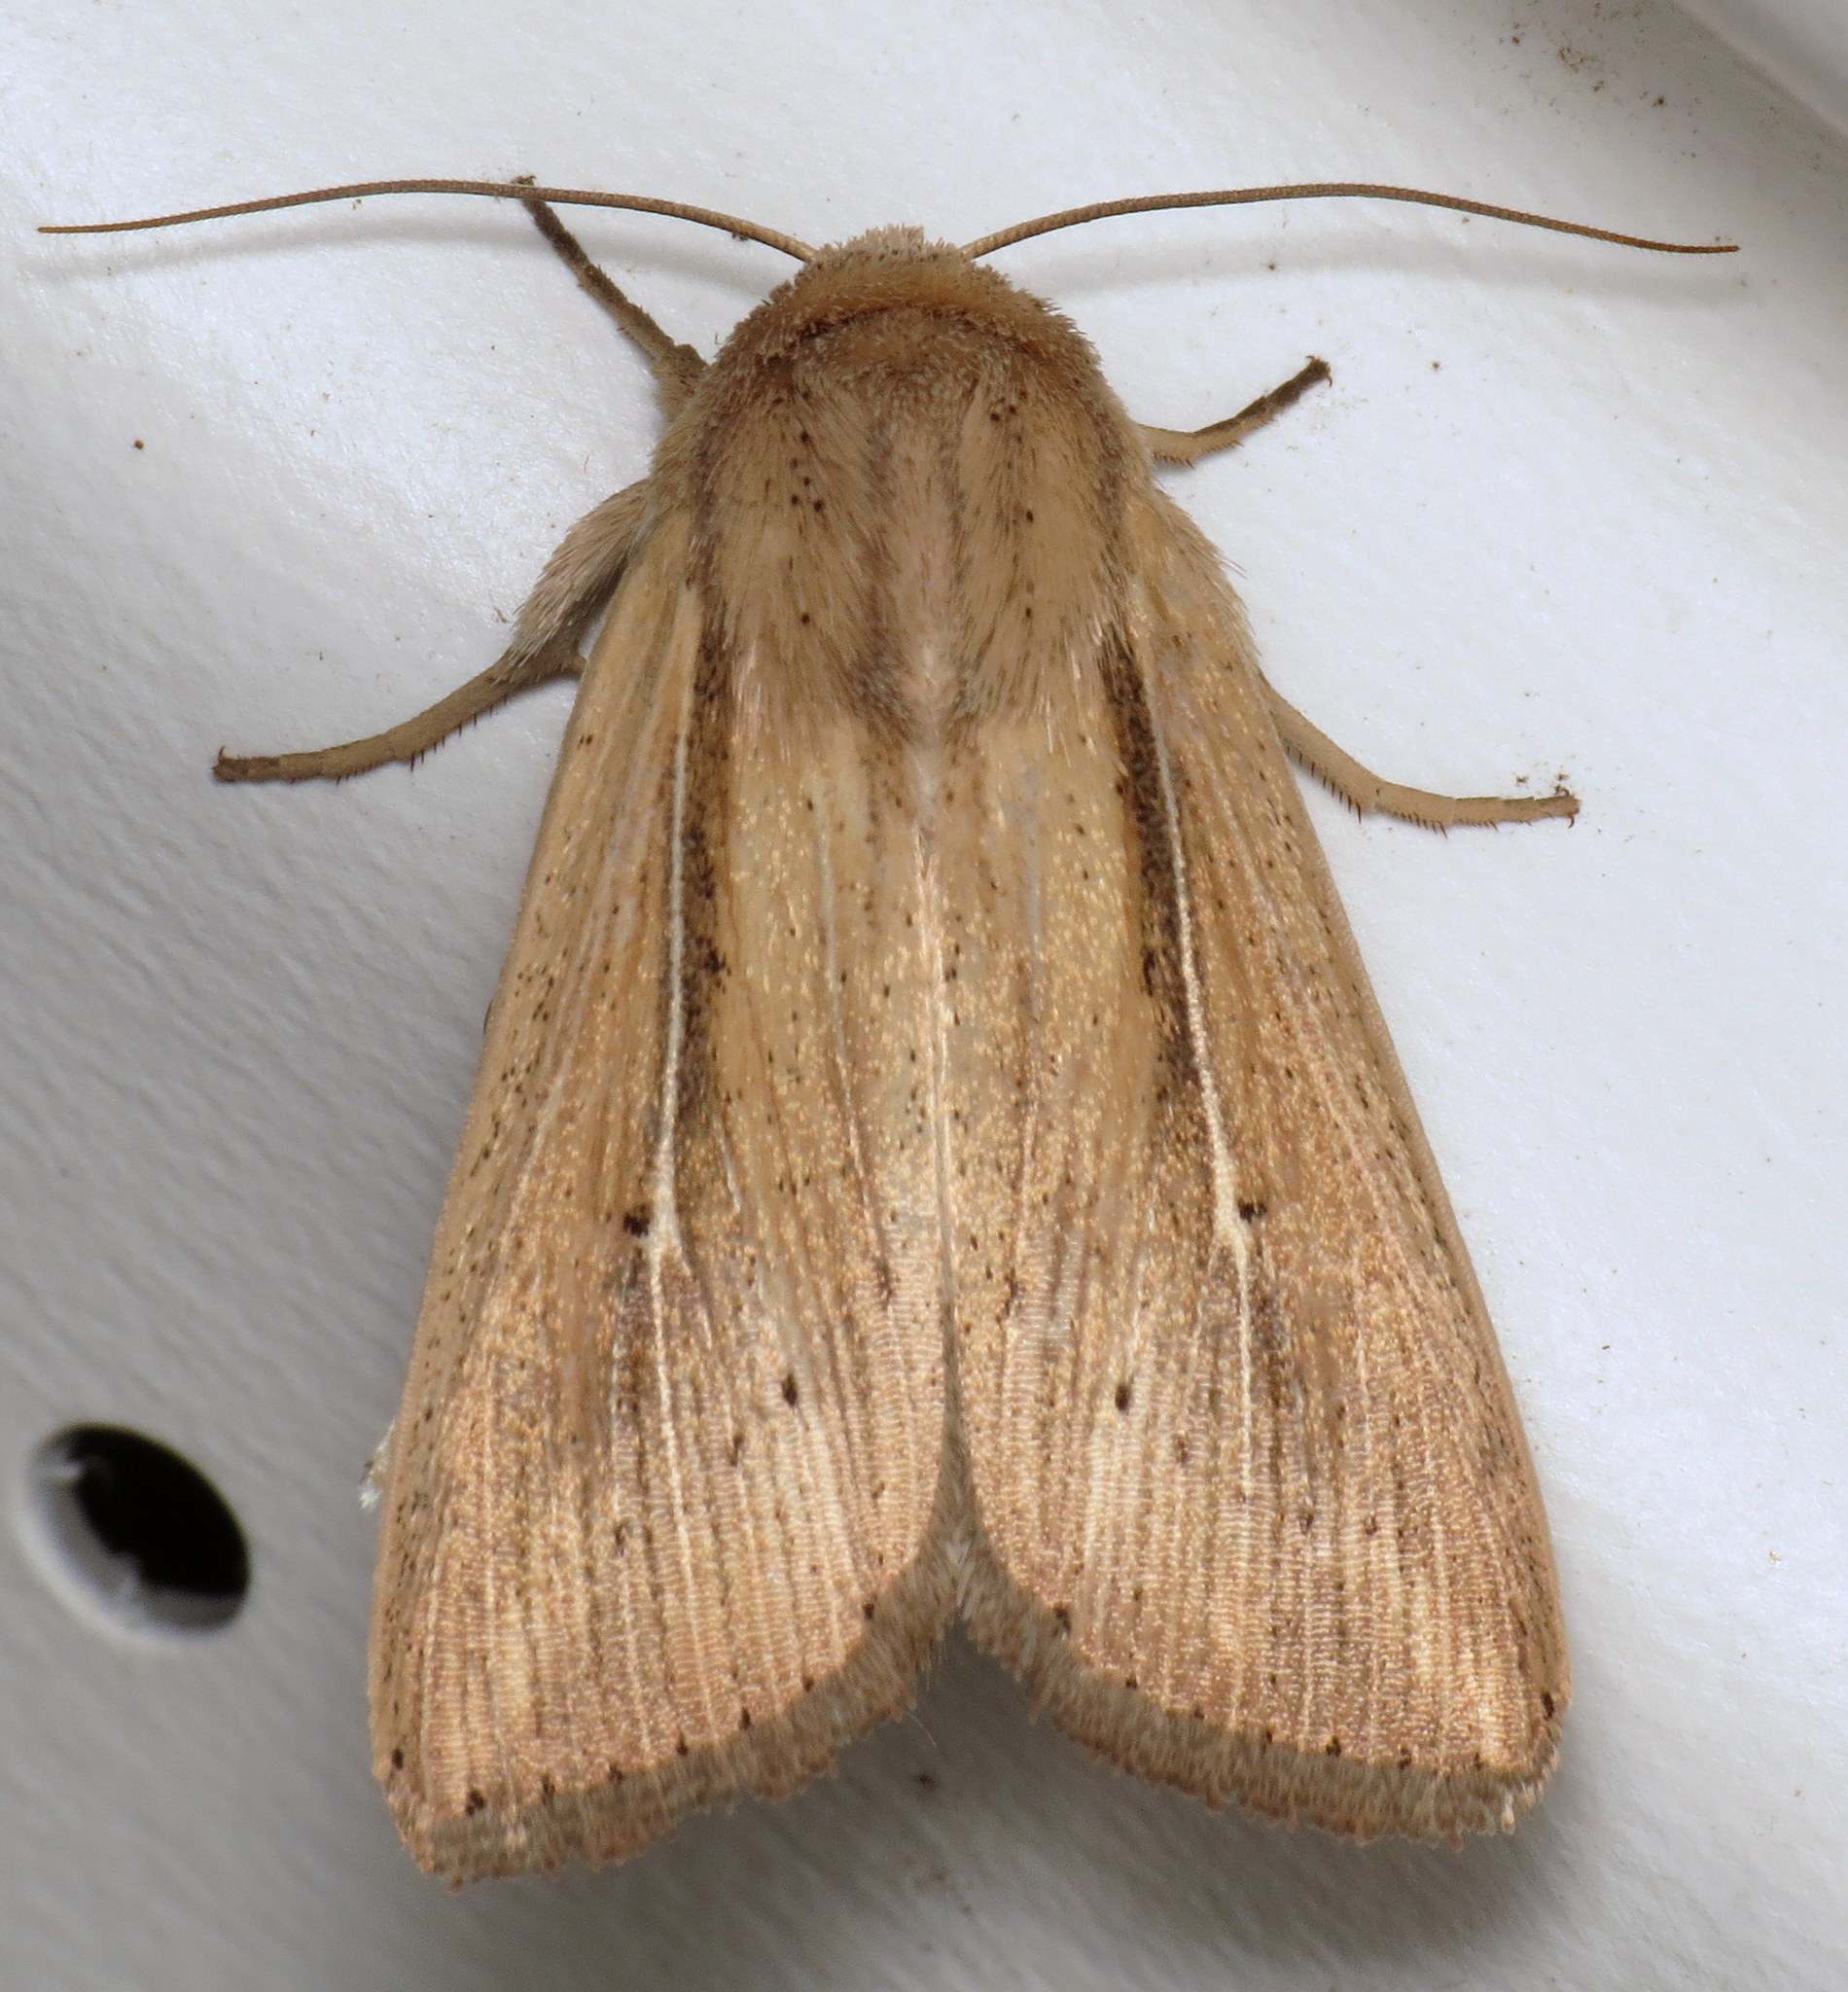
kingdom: Animalia
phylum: Arthropoda
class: Insecta
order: Lepidoptera
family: Noctuidae
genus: Leucania
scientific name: Leucania phragmitidicola
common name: Phragmites wainscot
